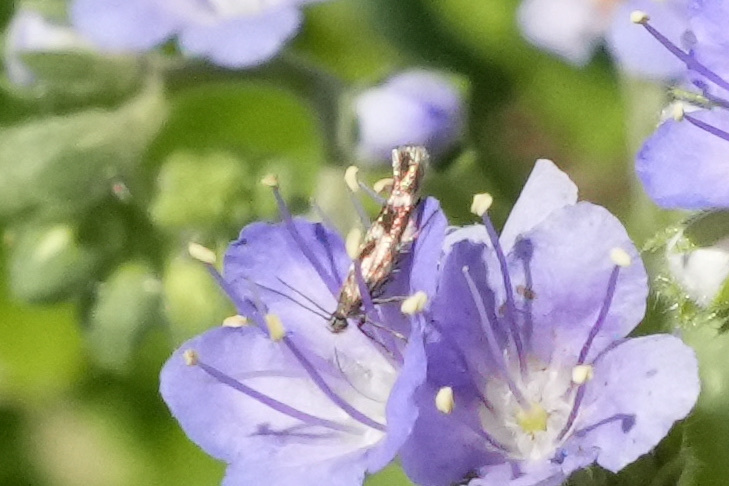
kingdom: Animalia
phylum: Arthropoda
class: Insecta
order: Lepidoptera
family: Scythrididae
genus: Scythris
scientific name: Scythris trivinctella
